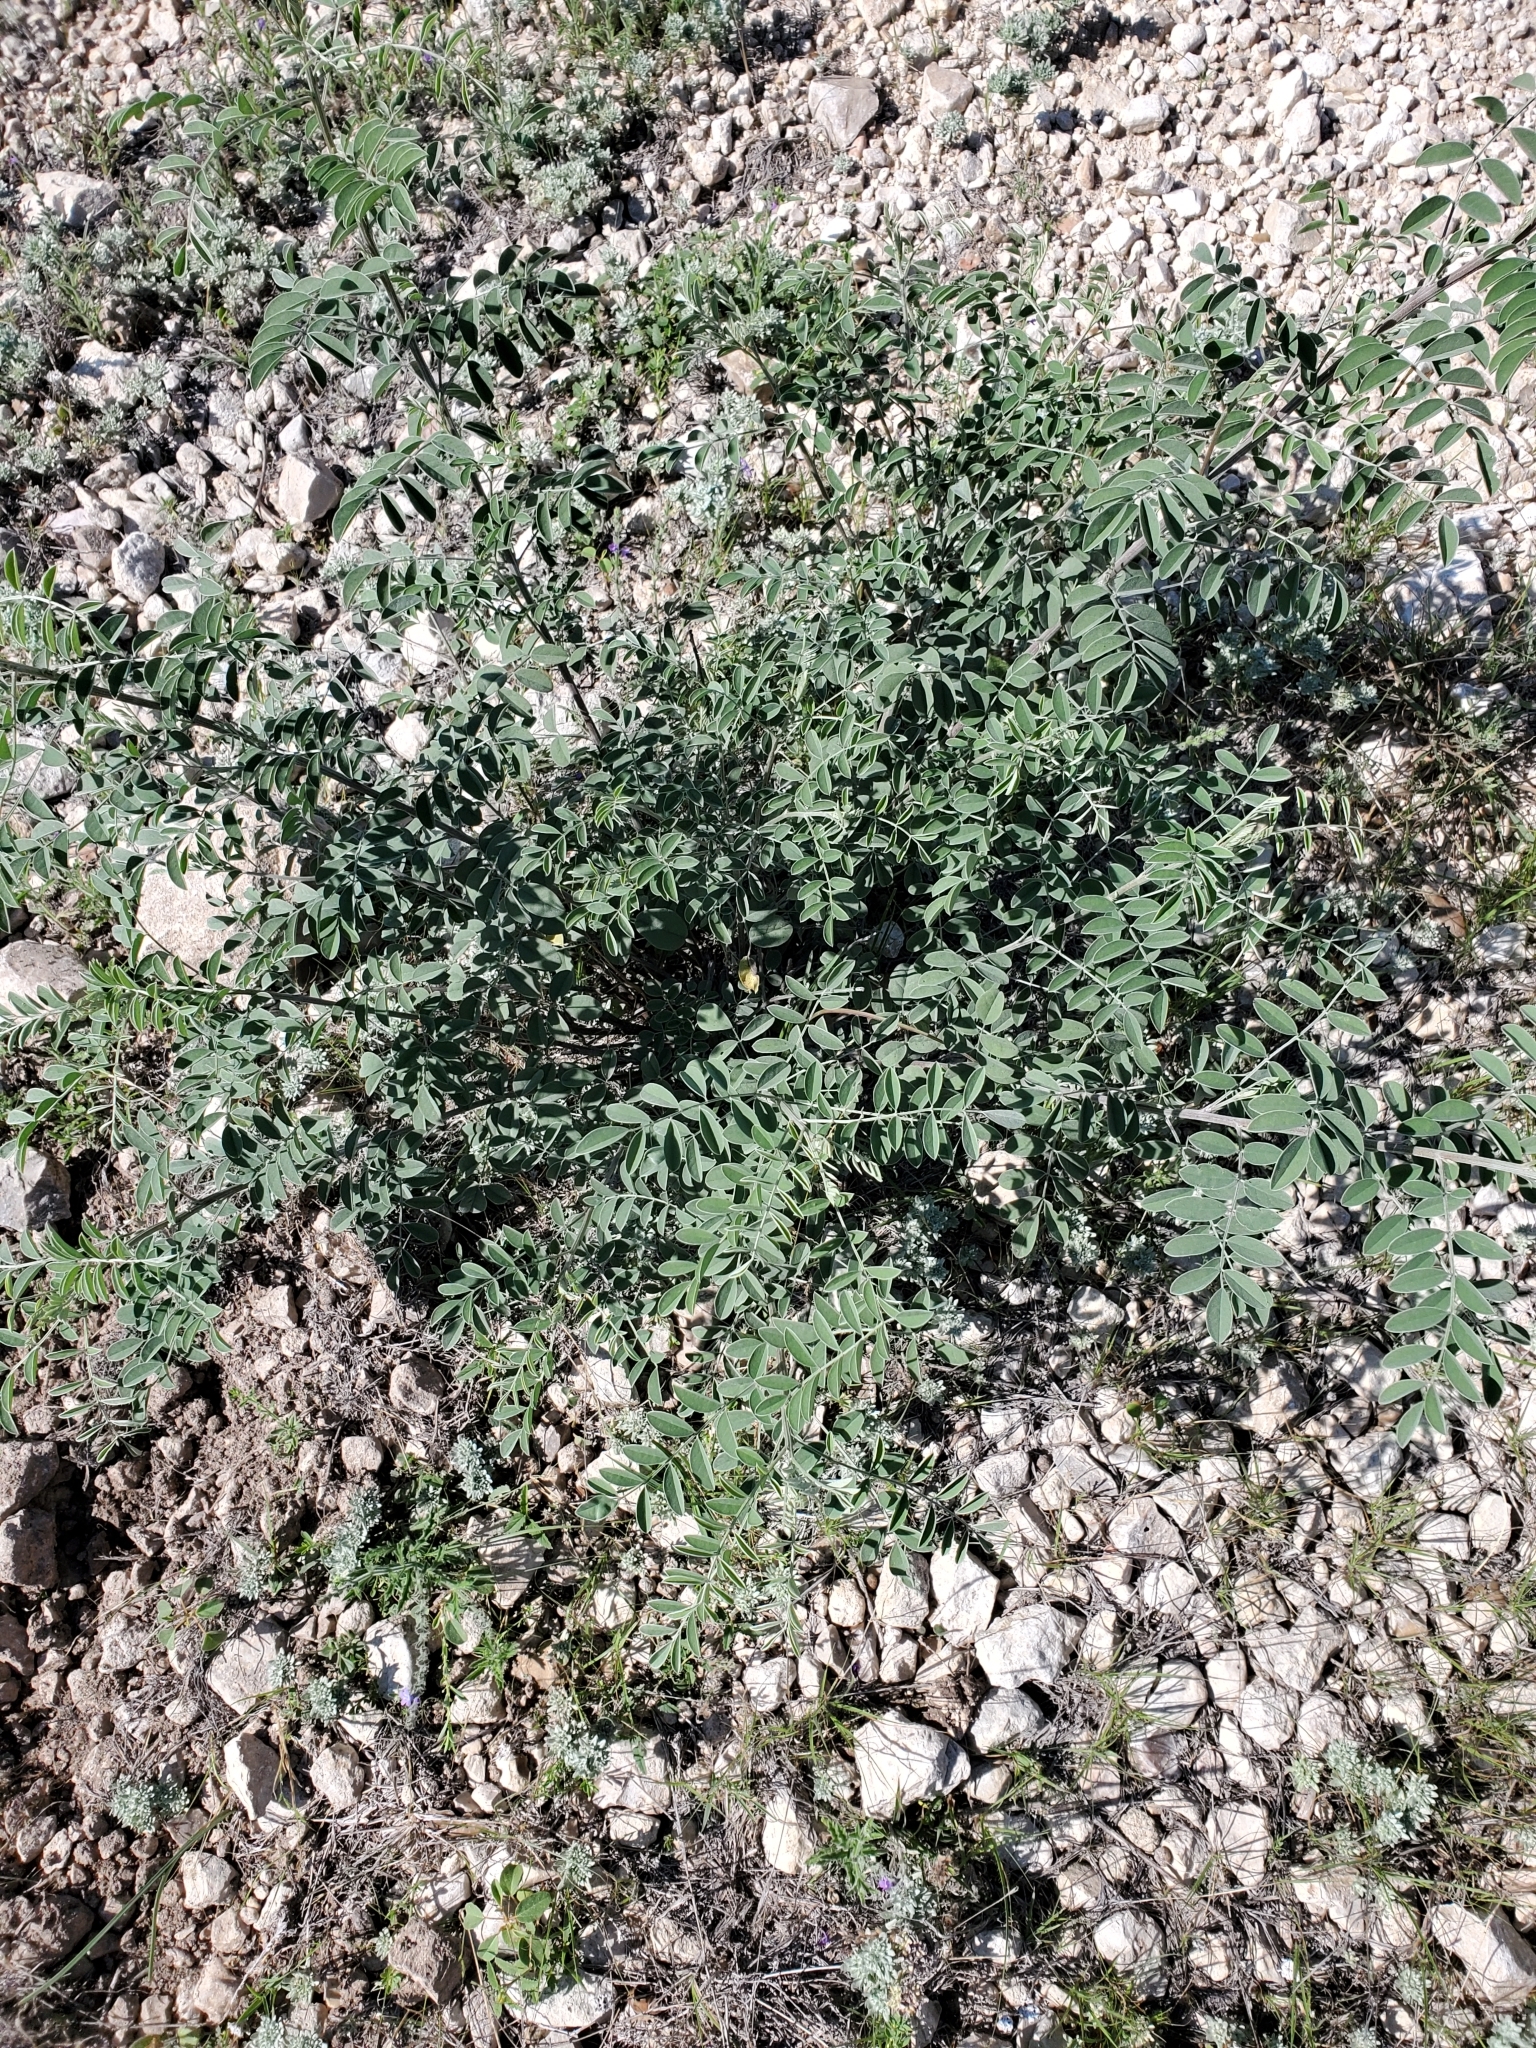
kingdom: Plantae
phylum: Tracheophyta
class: Magnoliopsida
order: Fabales
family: Fabaceae
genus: Indigofera
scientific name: Indigofera lindheimeriana
